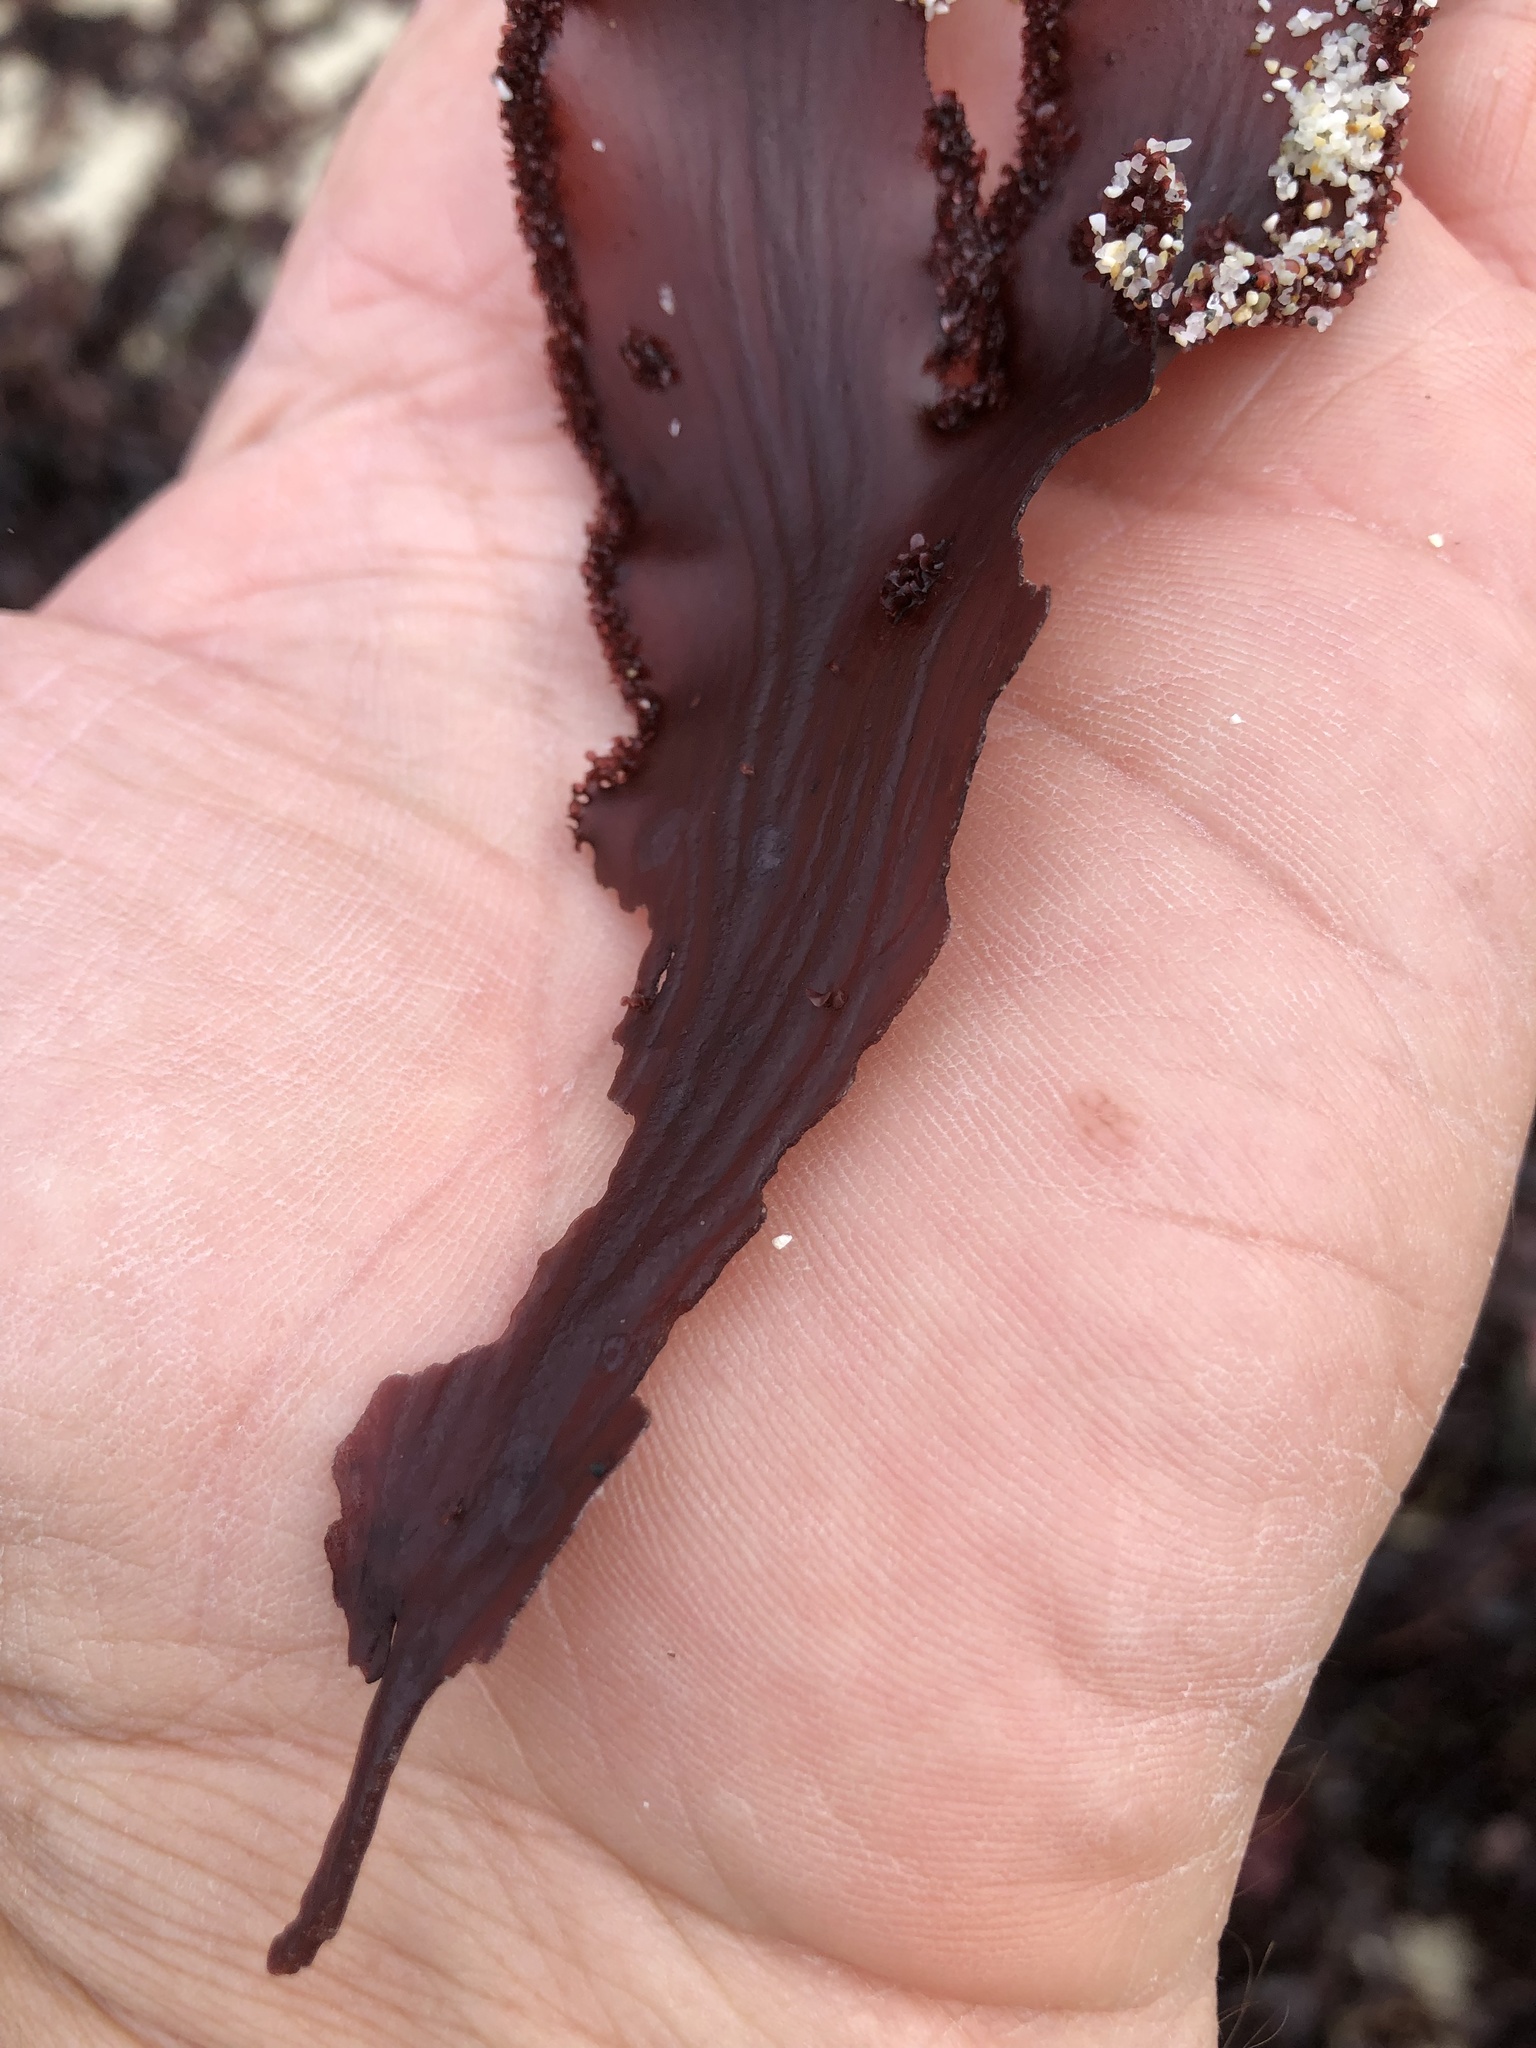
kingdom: Plantae
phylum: Rhodophyta
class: Florideophyceae
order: Ceramiales
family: Delesseriaceae
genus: Cryptopleura
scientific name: Cryptopleura ruprechtiana
